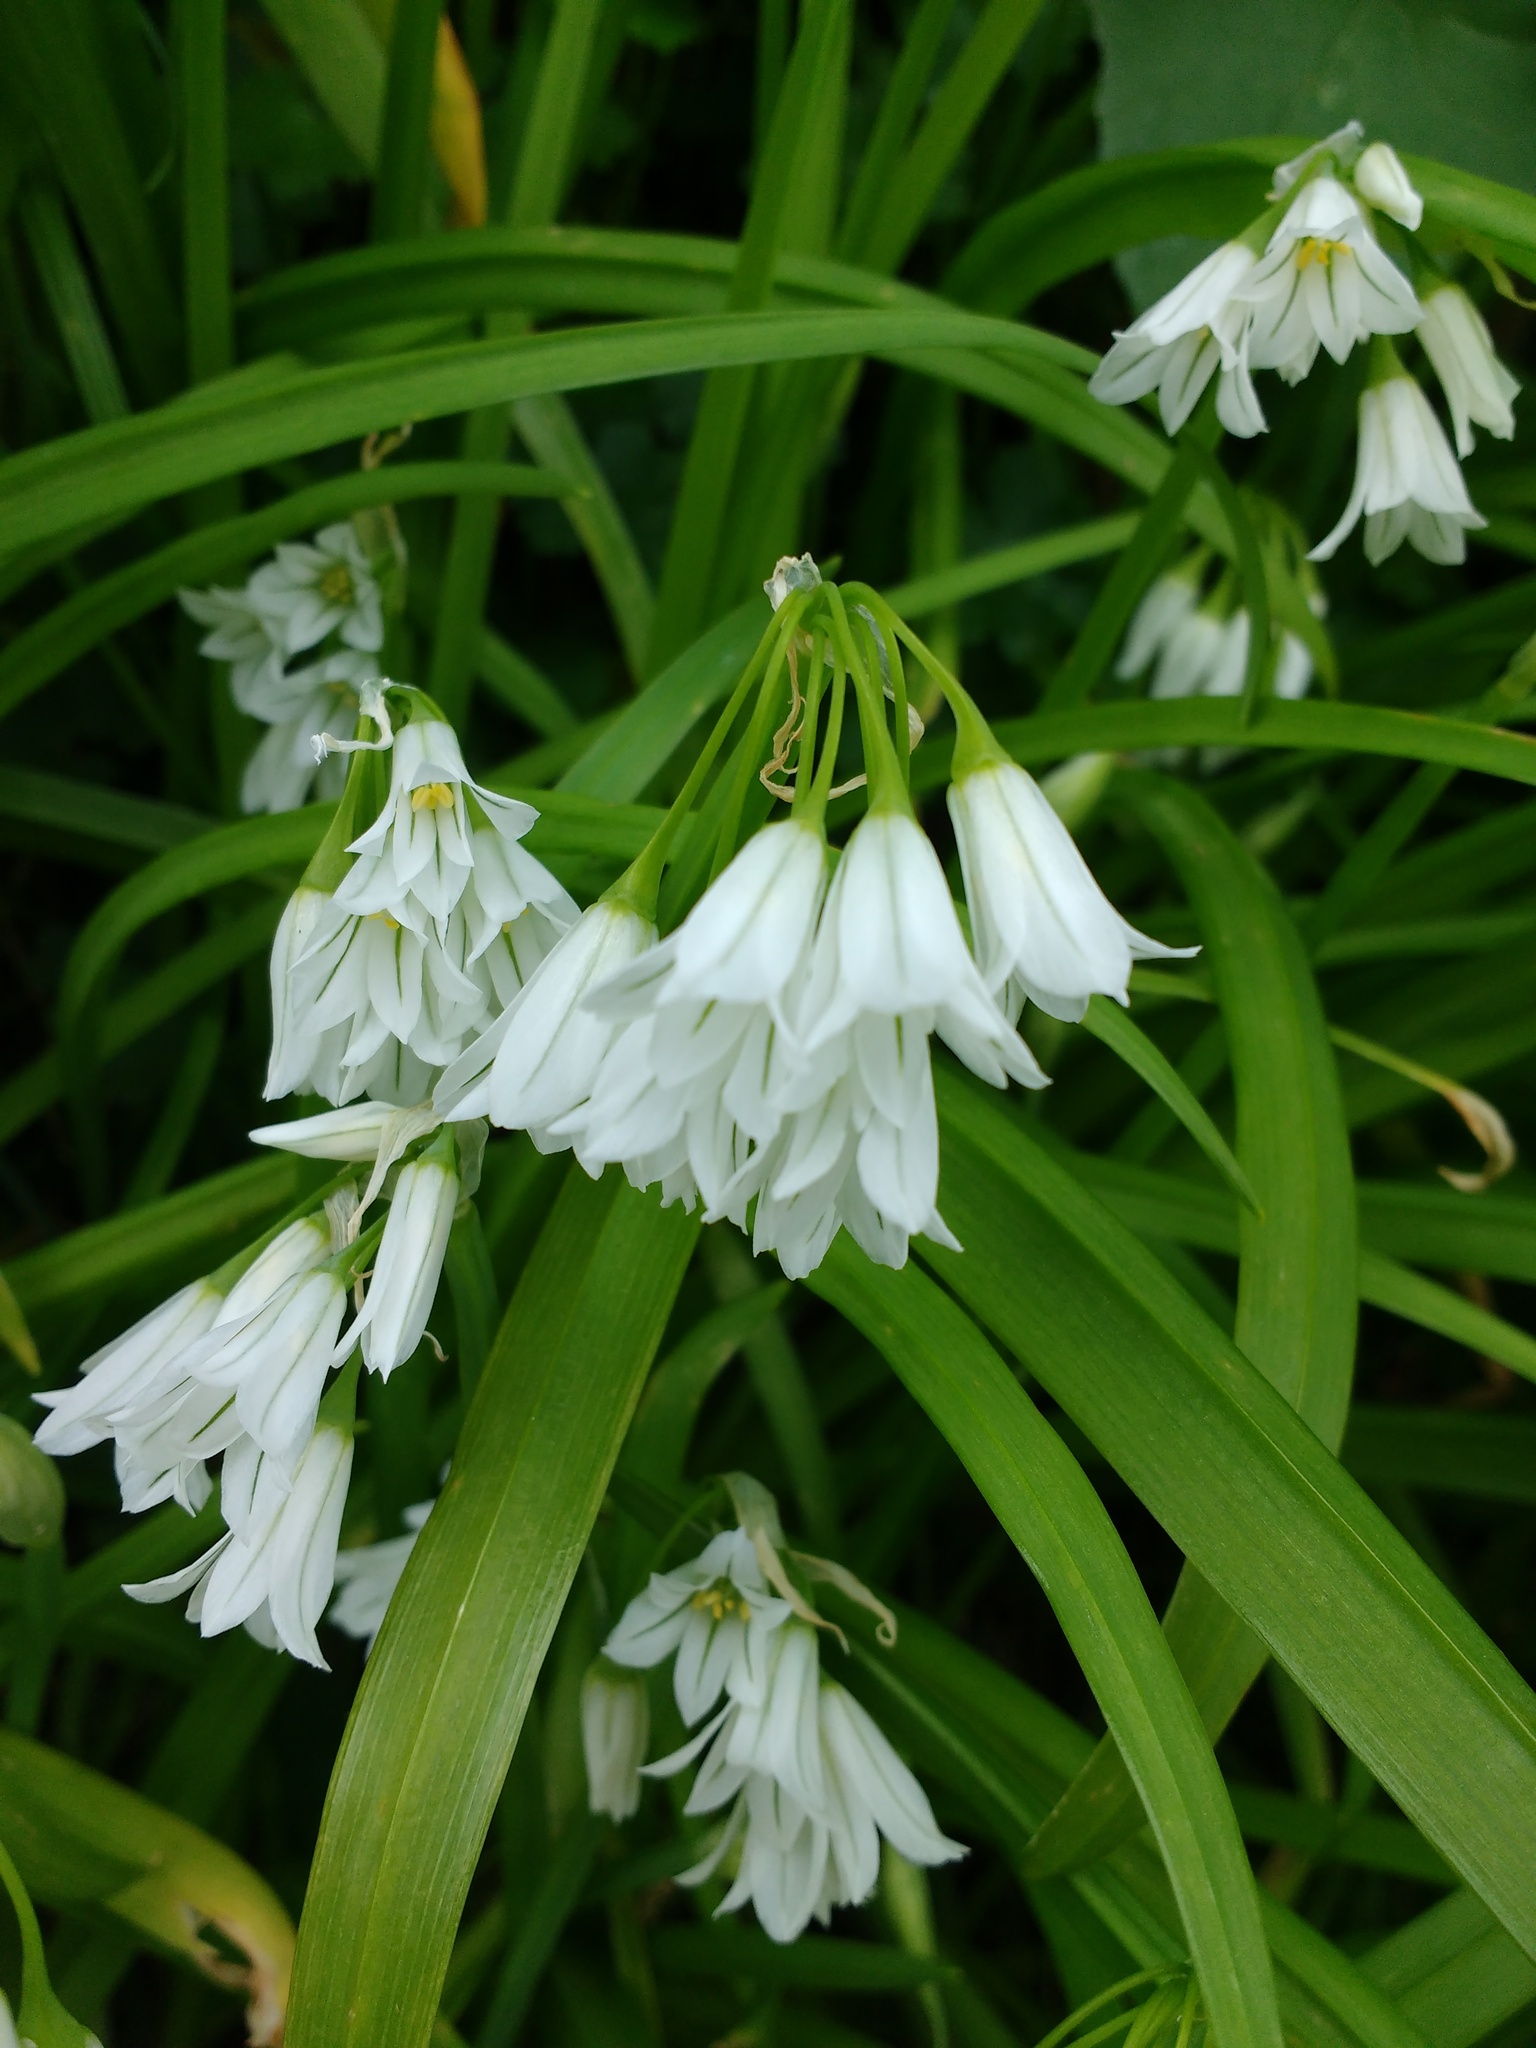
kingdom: Plantae
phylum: Tracheophyta
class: Liliopsida
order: Asparagales
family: Amaryllidaceae
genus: Allium
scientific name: Allium triquetrum
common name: Three-cornered garlic
